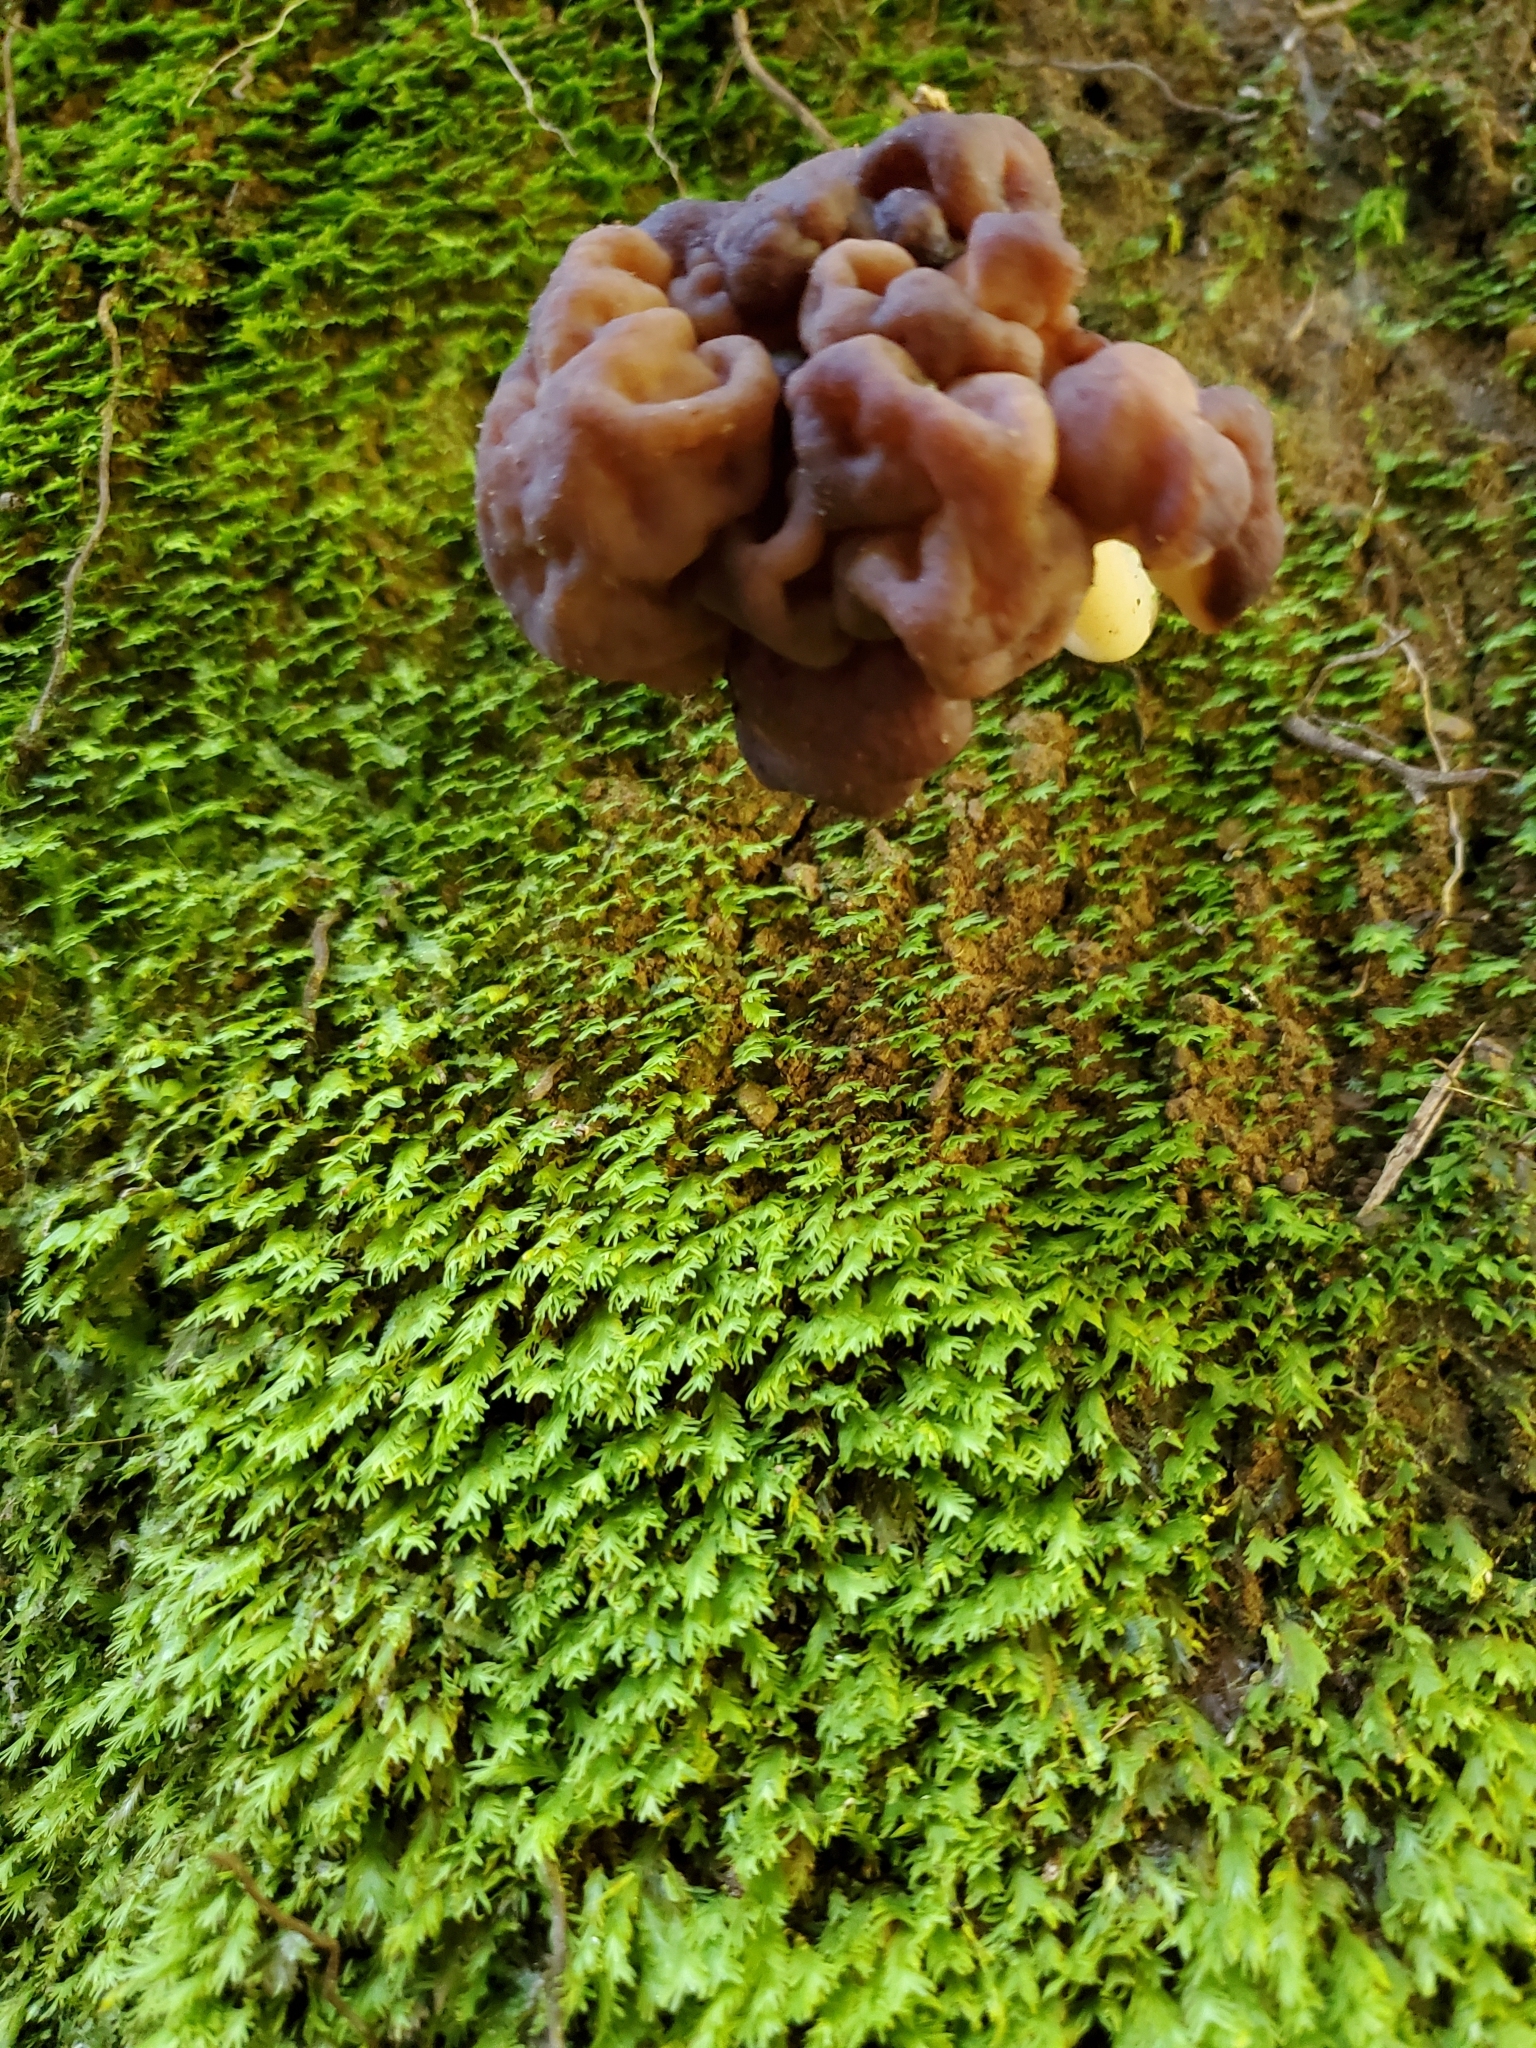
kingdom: Fungi
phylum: Ascomycota
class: Pezizomycetes
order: Pezizales
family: Discinaceae
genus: Gyromitra
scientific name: Gyromitra tasmanica
